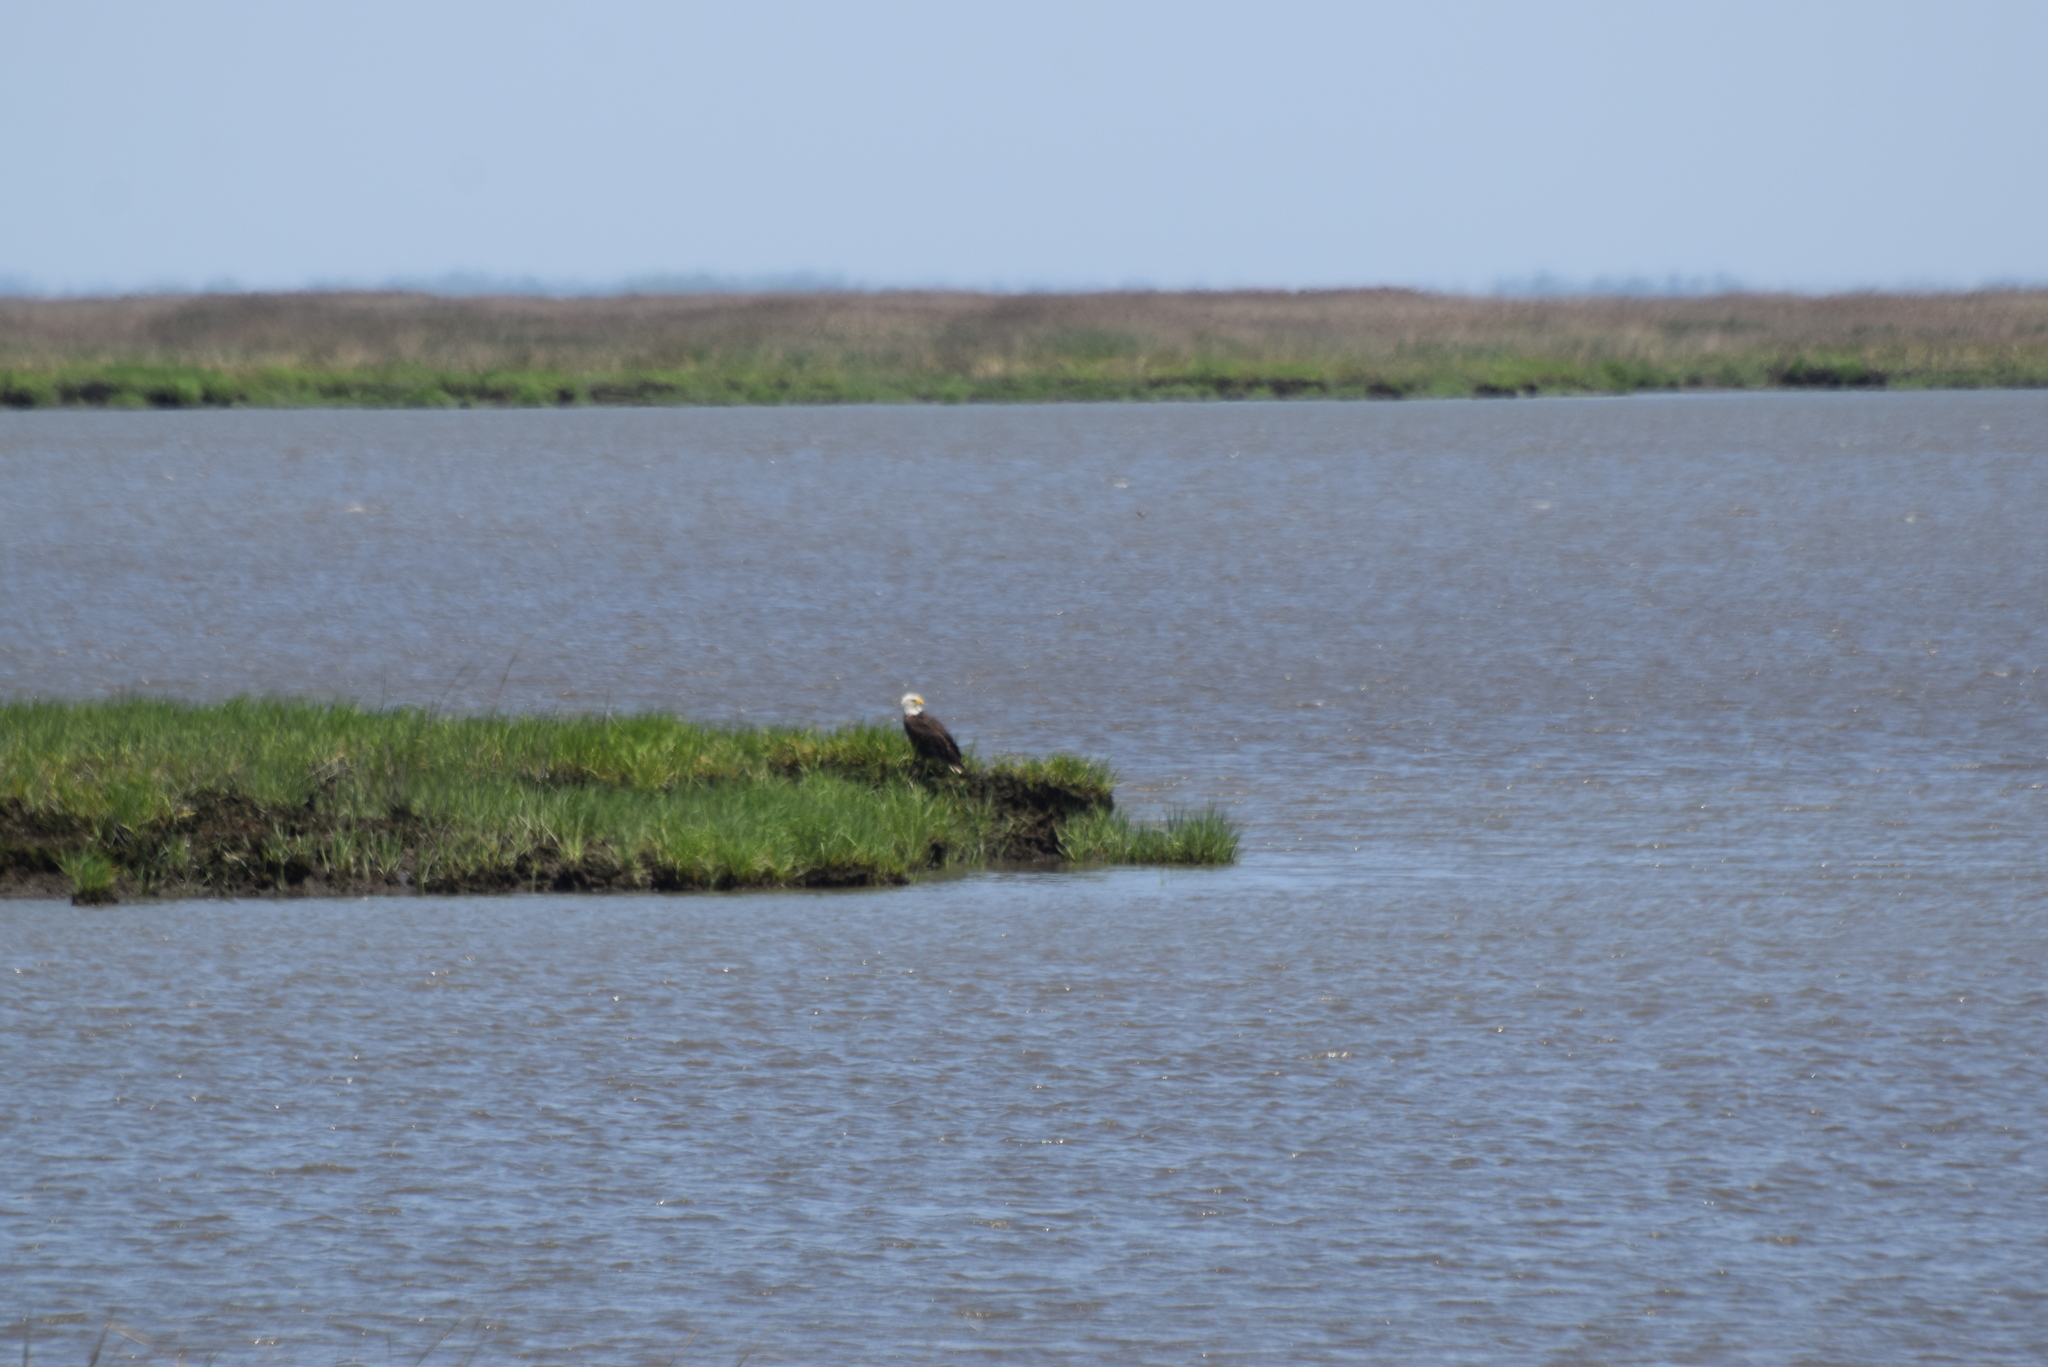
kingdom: Animalia
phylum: Chordata
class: Aves
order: Accipitriformes
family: Accipitridae
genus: Haliaeetus
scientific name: Haliaeetus leucocephalus
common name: Bald eagle
